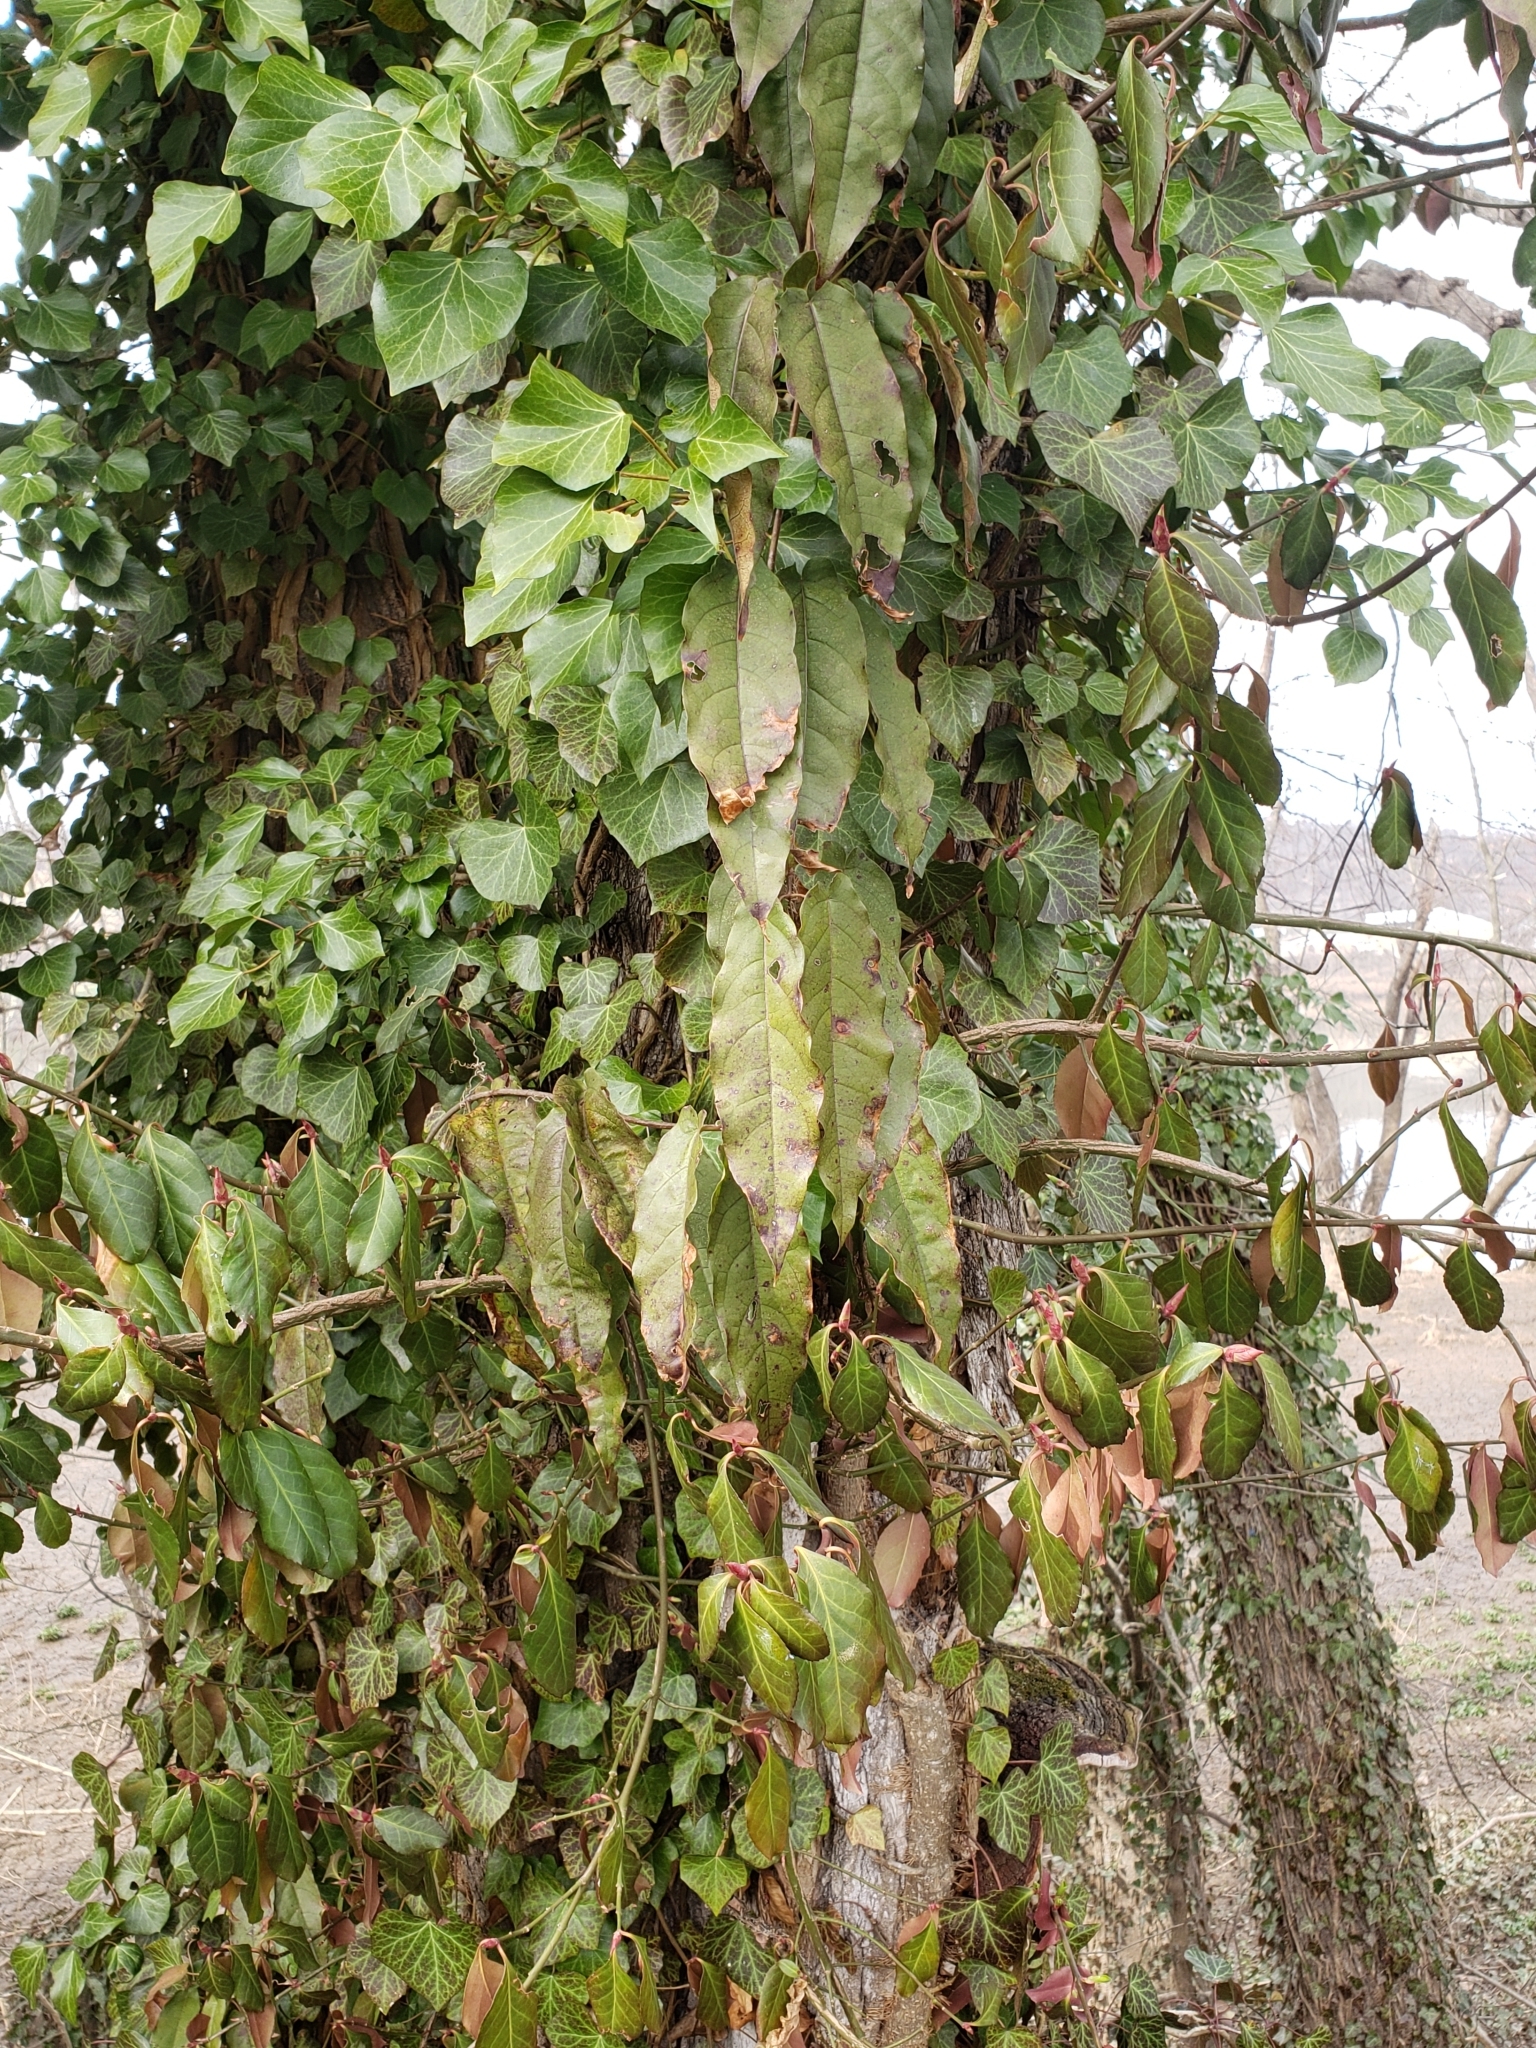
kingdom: Plantae
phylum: Tracheophyta
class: Magnoliopsida
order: Lamiales
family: Bignoniaceae
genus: Bignonia
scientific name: Bignonia capreolata
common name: Crossvine
